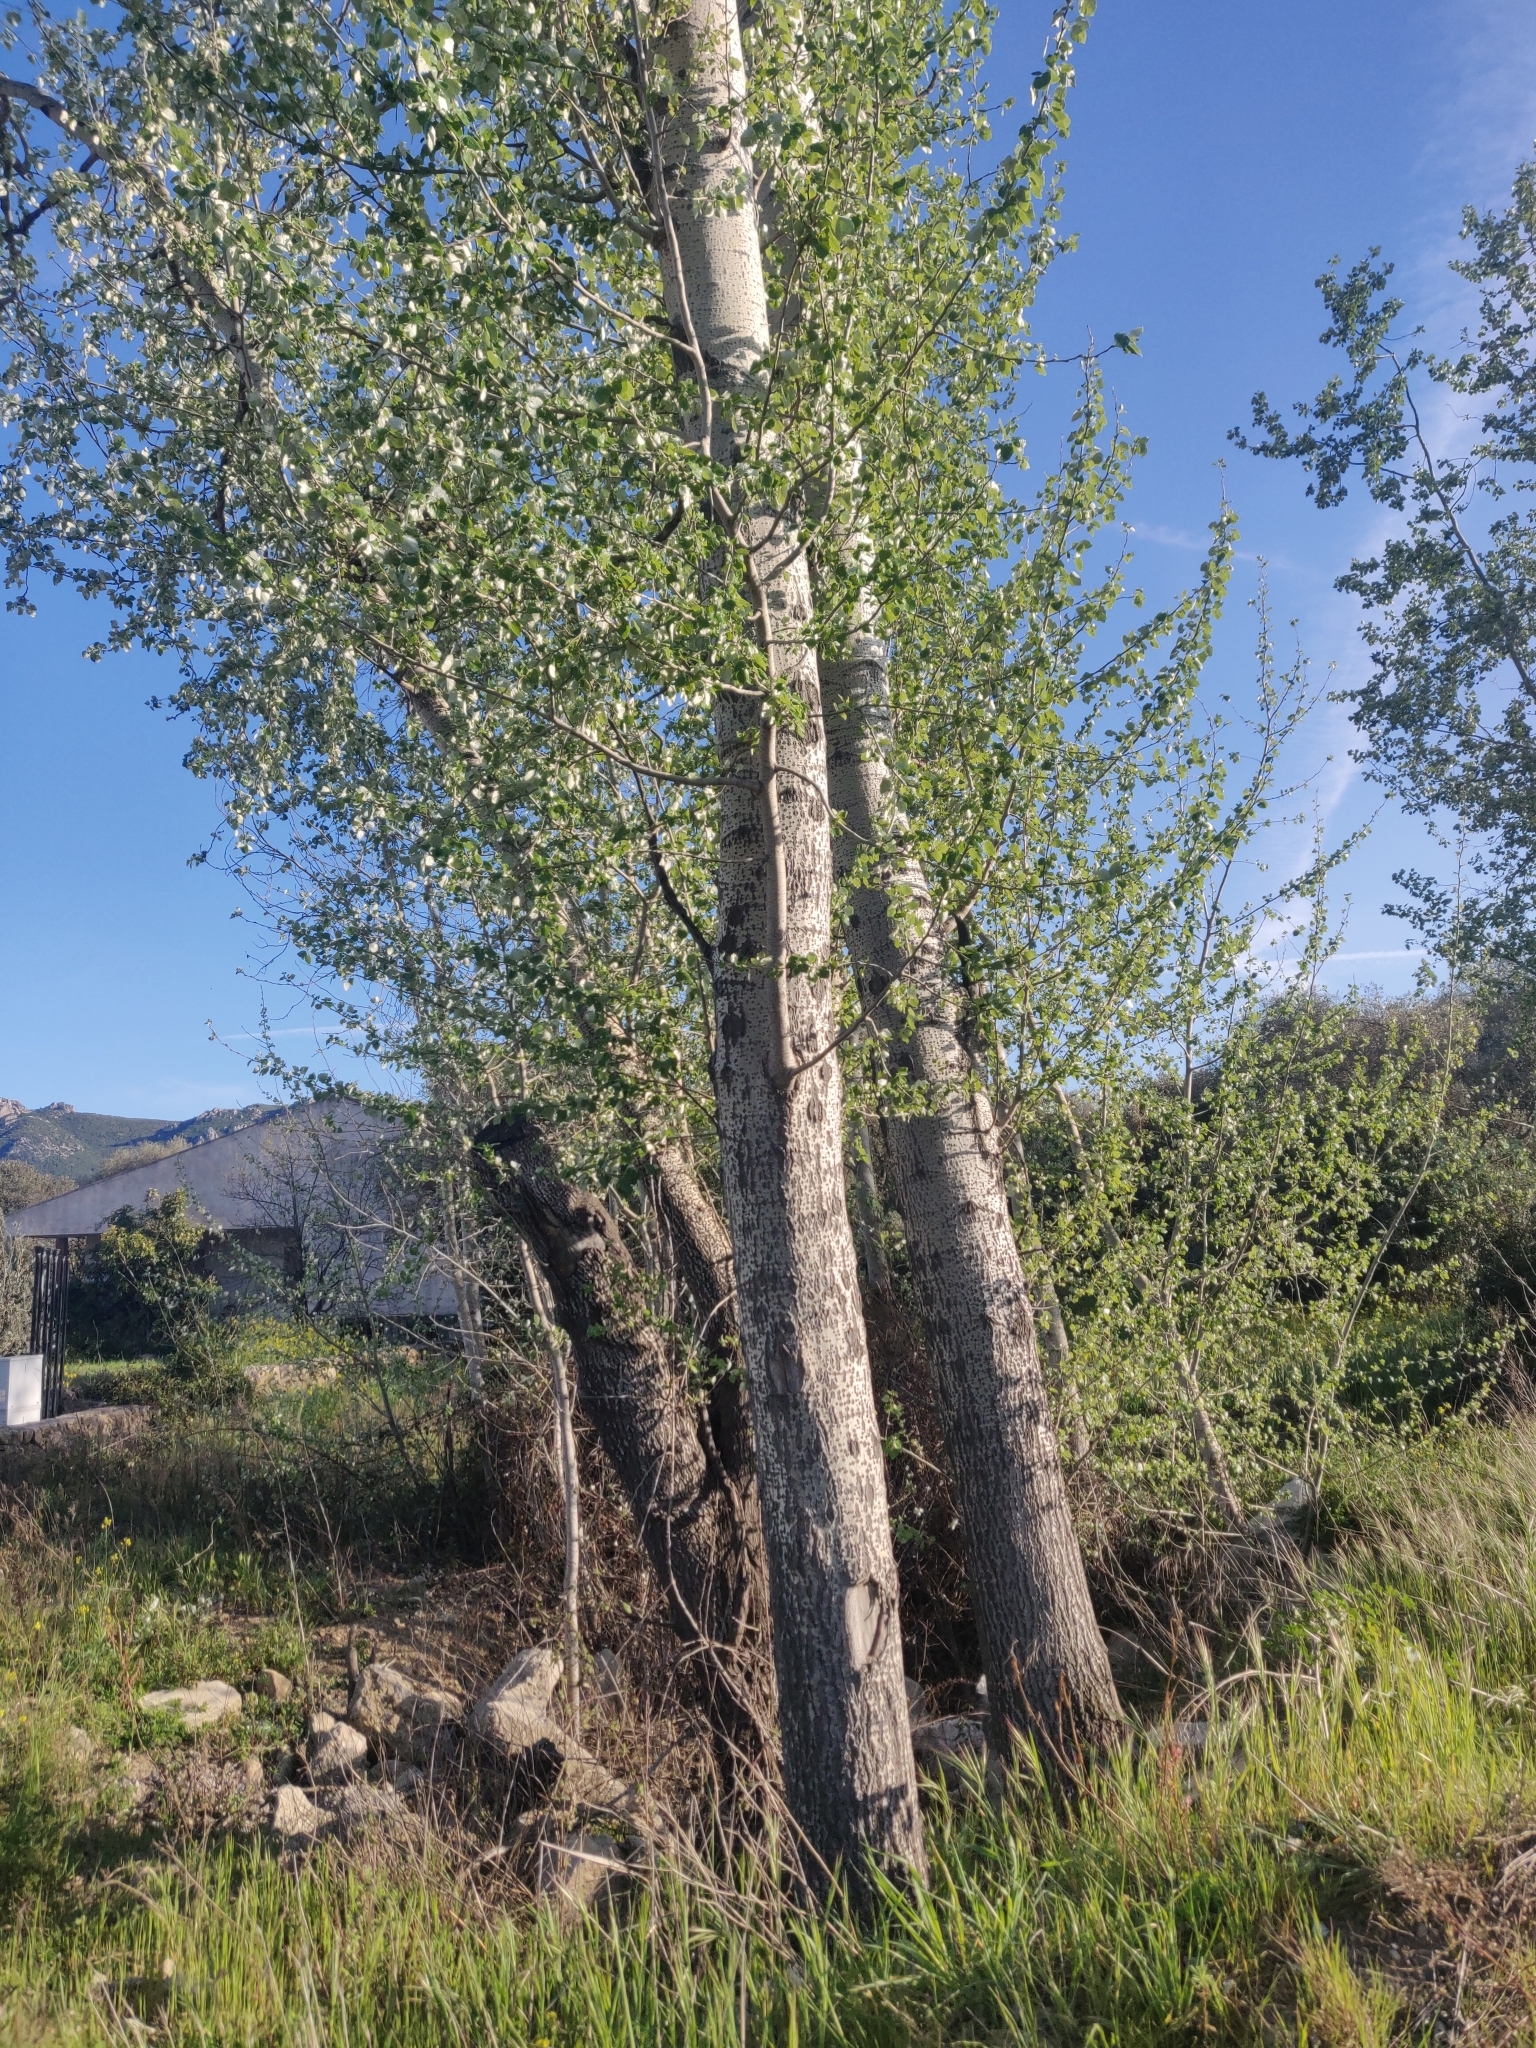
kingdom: Plantae
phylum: Tracheophyta
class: Magnoliopsida
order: Malpighiales
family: Salicaceae
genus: Populus
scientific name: Populus alba
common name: White poplar
